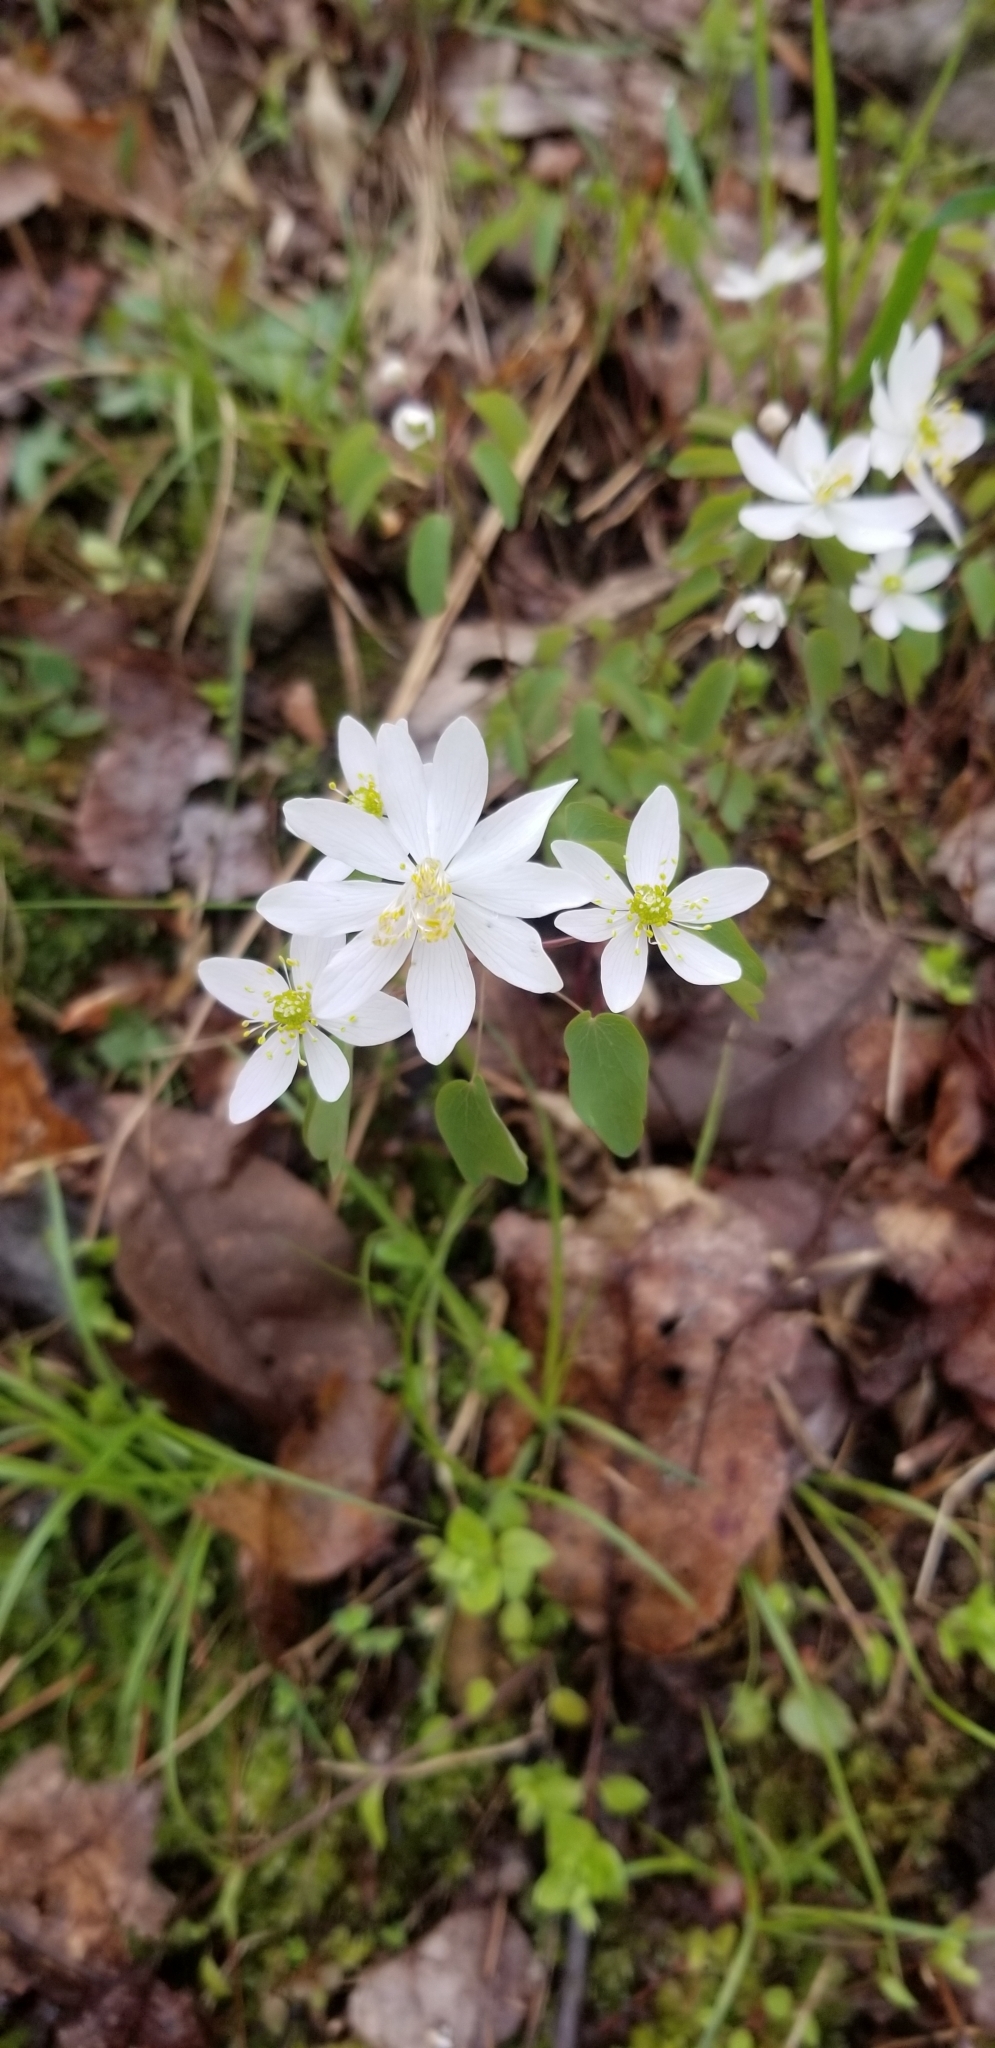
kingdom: Plantae
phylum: Tracheophyta
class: Magnoliopsida
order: Ranunculales
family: Ranunculaceae
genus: Thalictrum
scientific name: Thalictrum thalictroides
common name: Rue-anemone
